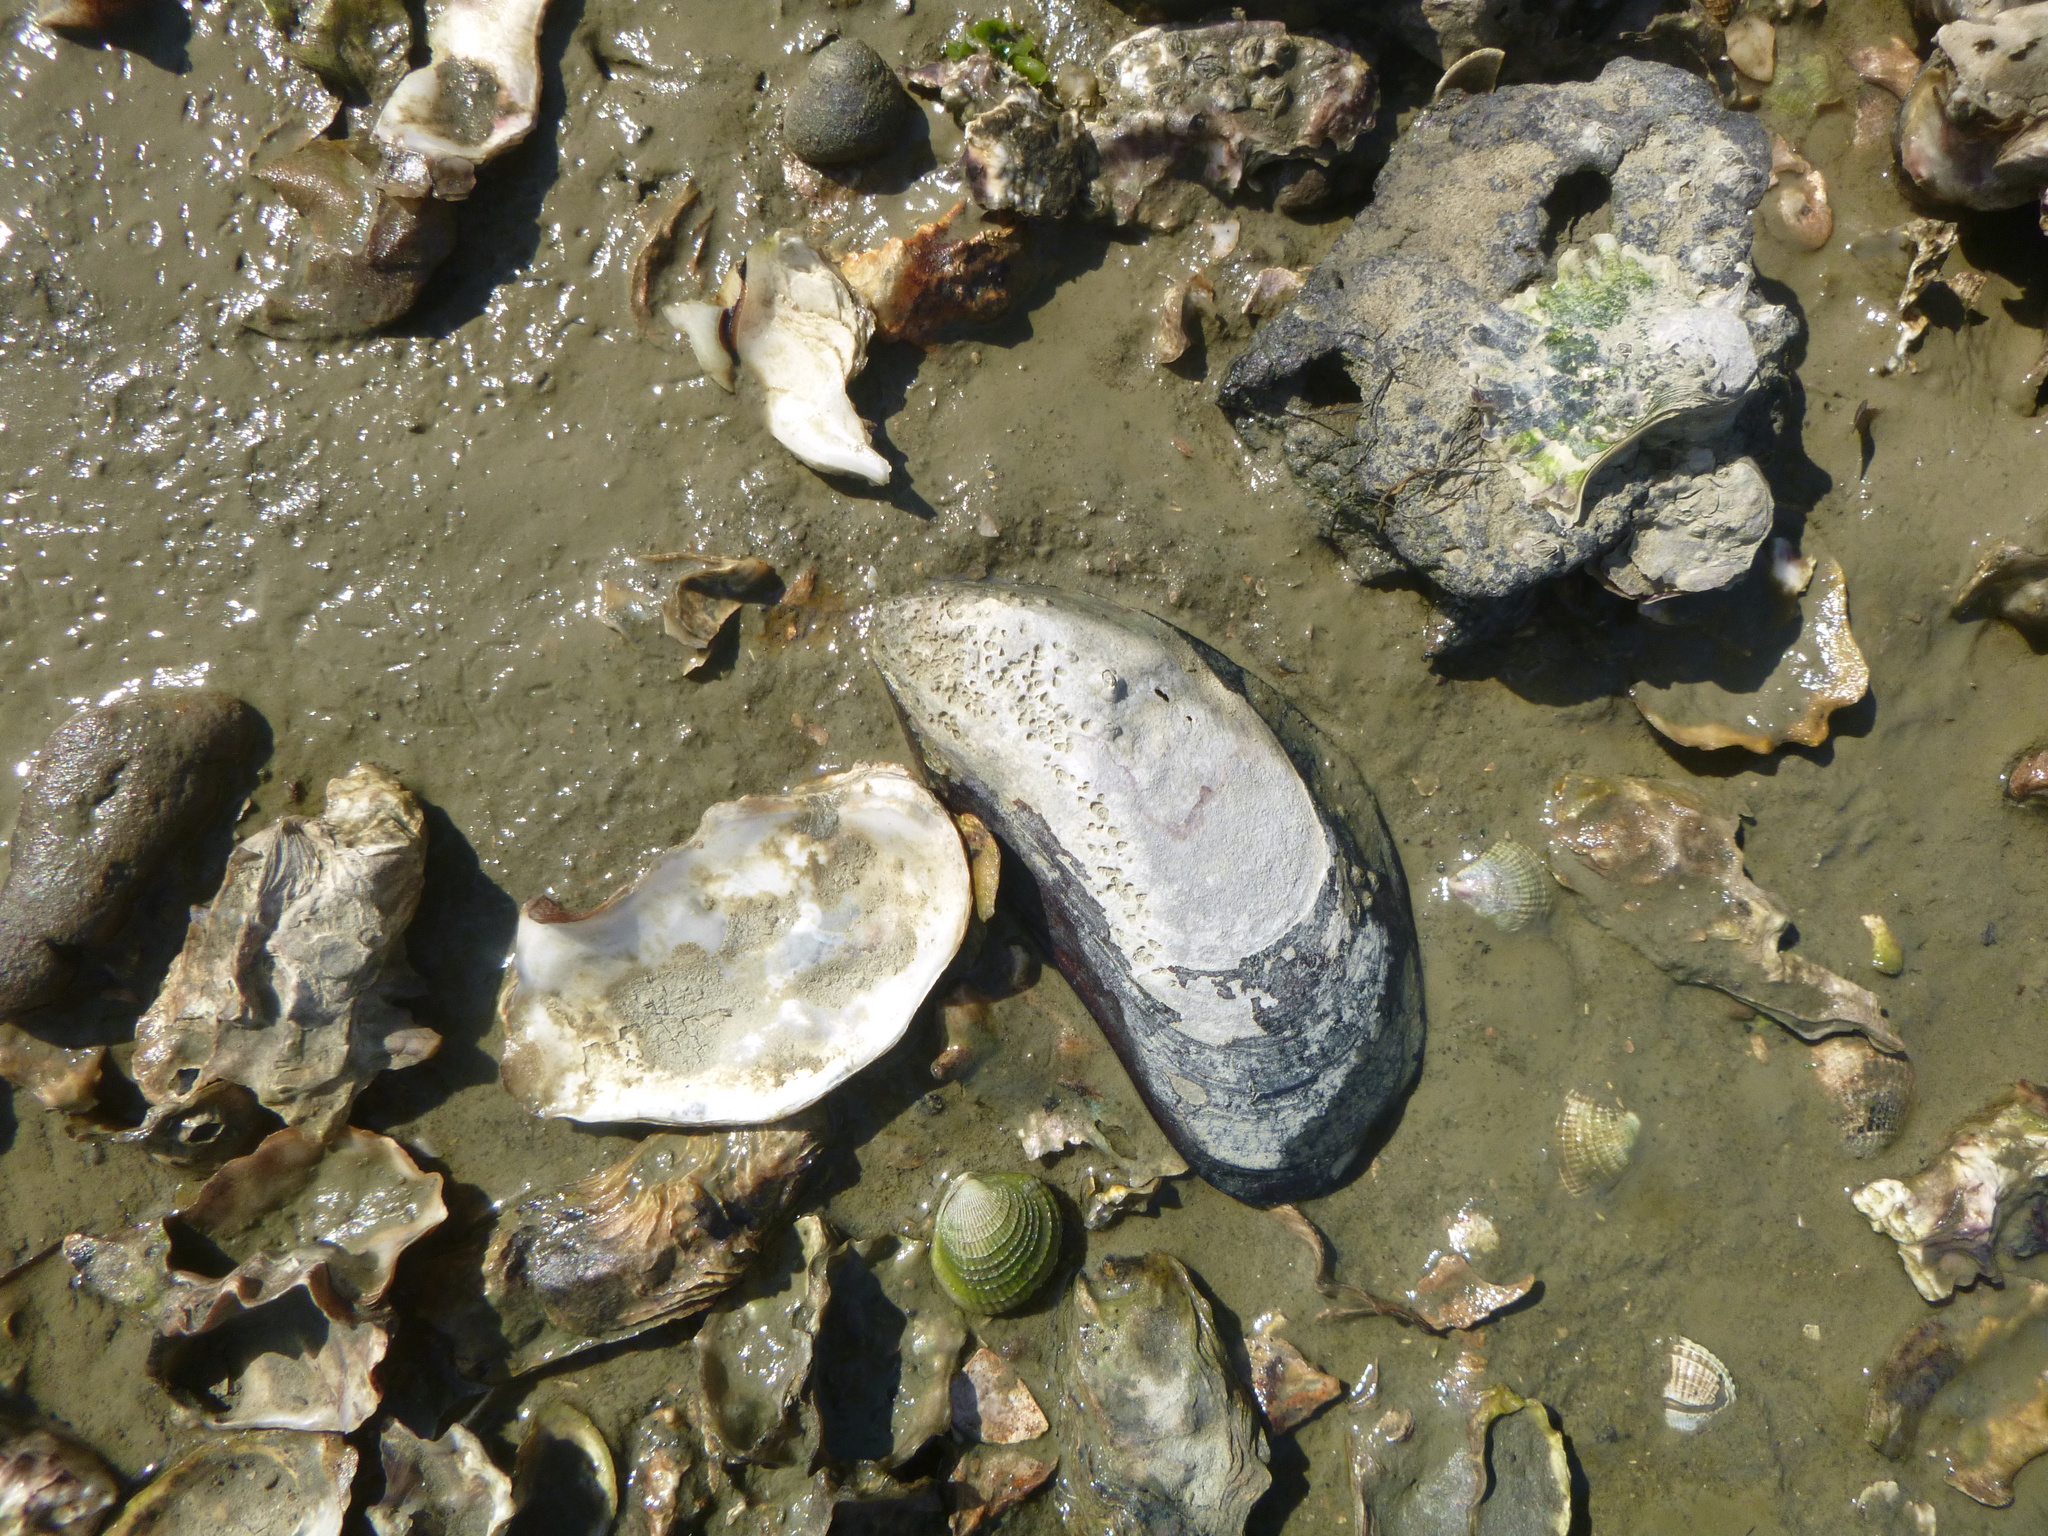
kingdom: Animalia
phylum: Mollusca
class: Bivalvia
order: Mytilida
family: Mytilidae
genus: Perna
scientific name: Perna canaliculus
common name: New zealand greenshelltm
